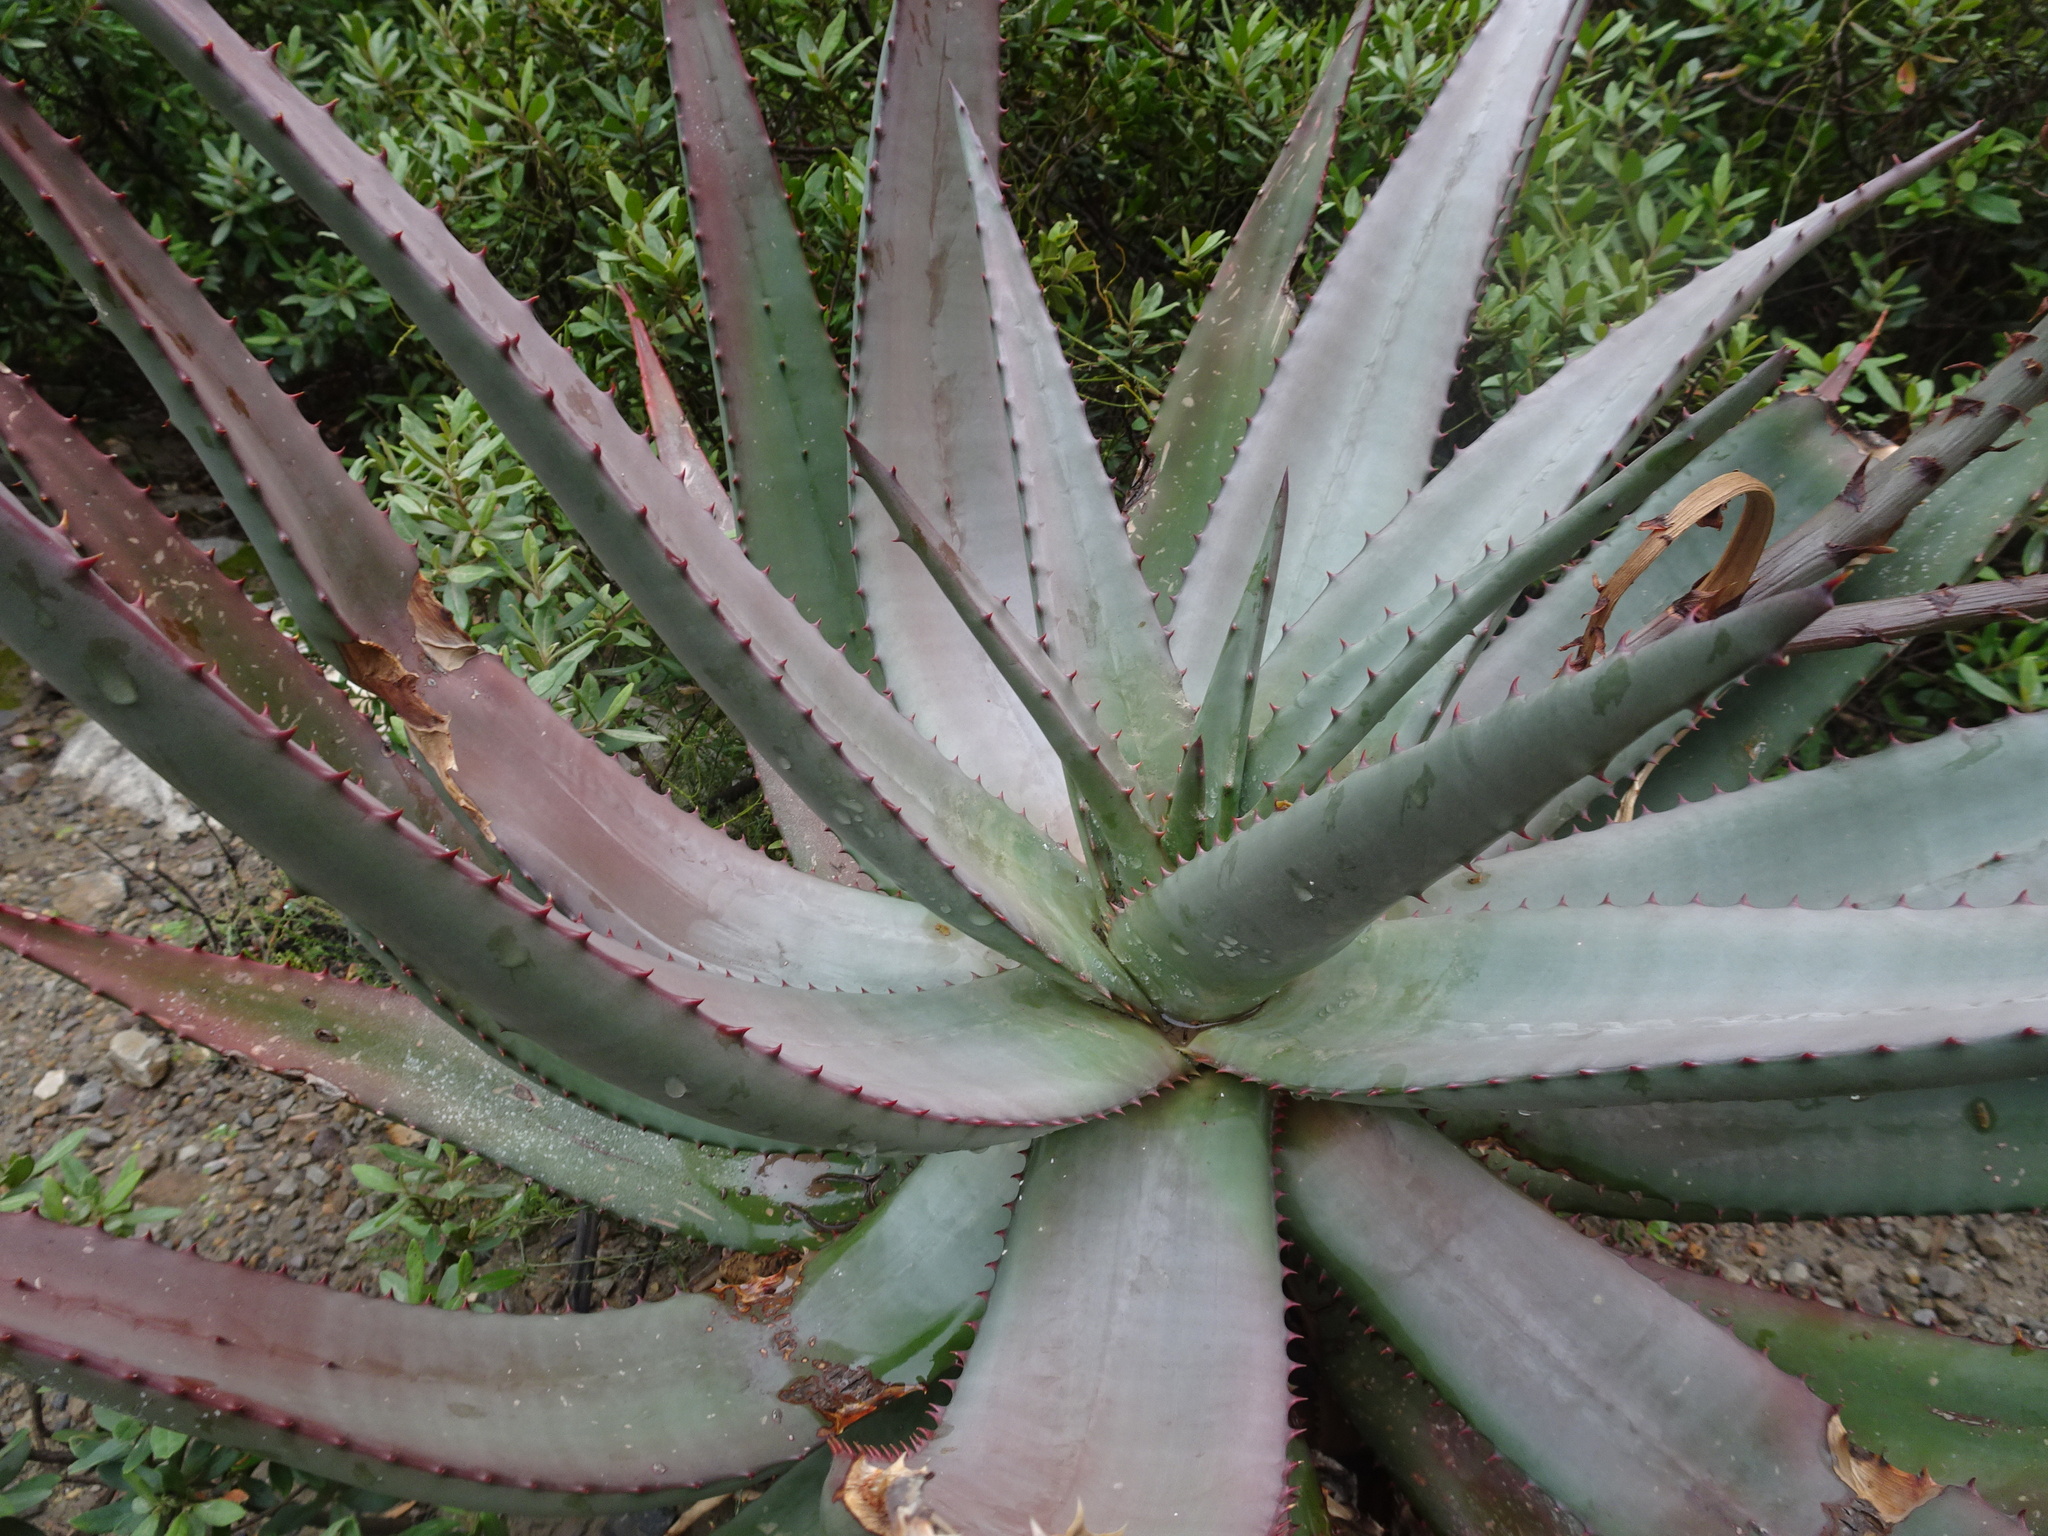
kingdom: Plantae
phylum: Tracheophyta
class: Liliopsida
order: Asparagales
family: Asphodelaceae
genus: Aloe
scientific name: Aloe ferox
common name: Bitter aloe
